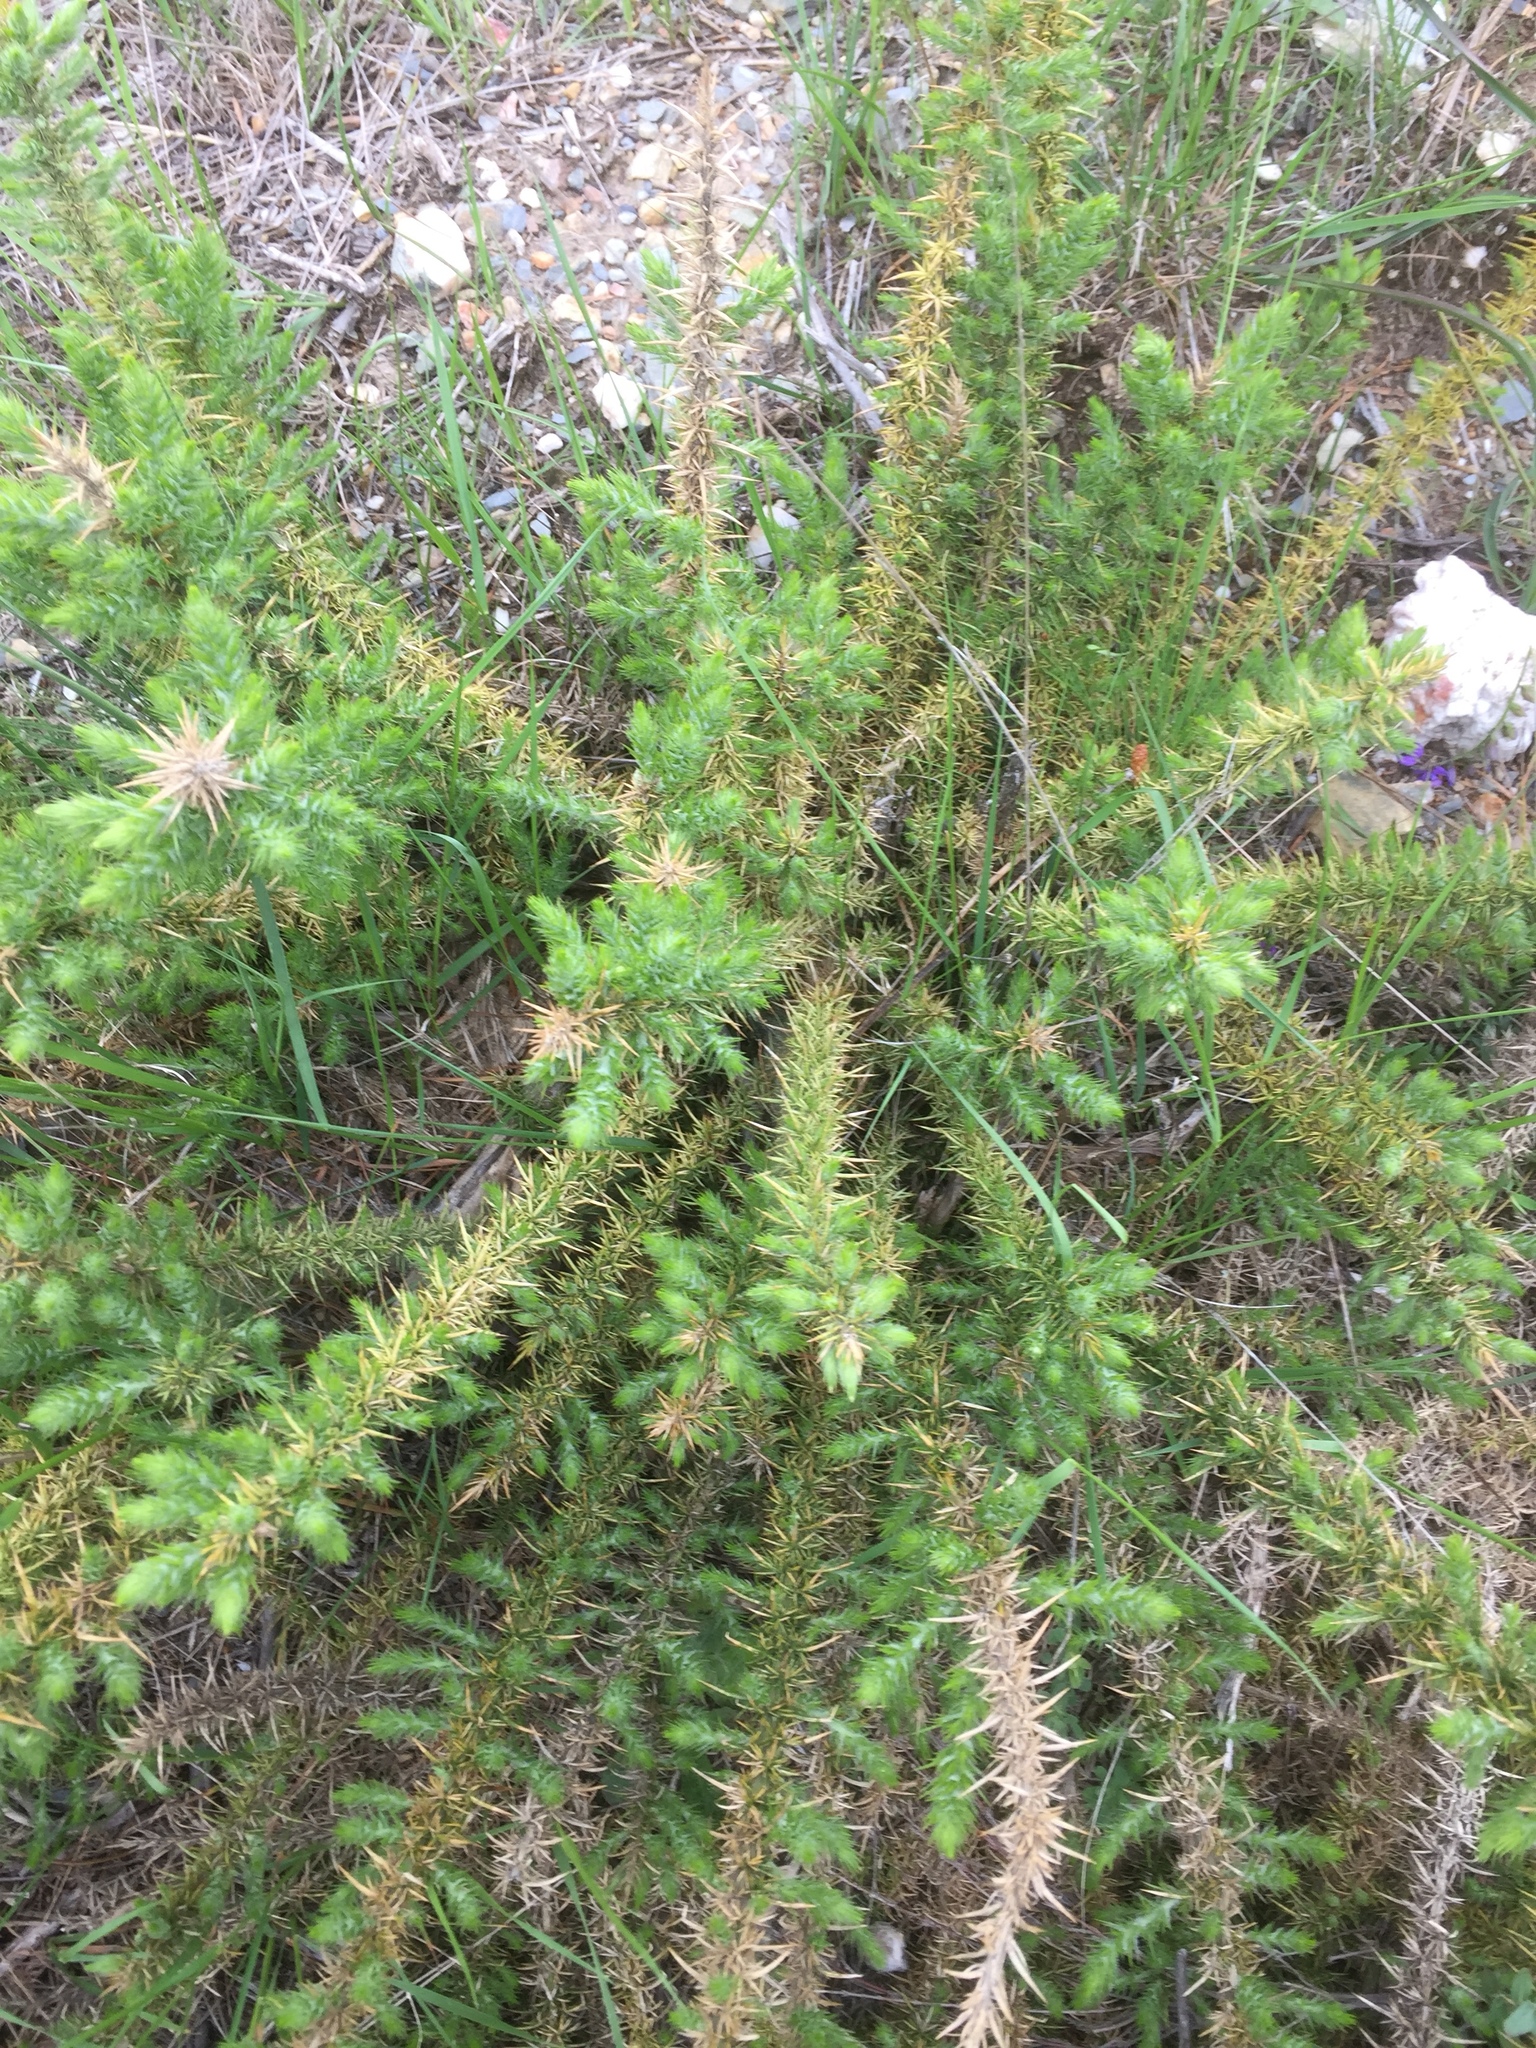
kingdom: Plantae
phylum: Tracheophyta
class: Magnoliopsida
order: Fabales
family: Fabaceae
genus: Ulex
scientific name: Ulex minor
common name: Dwarf gorse
